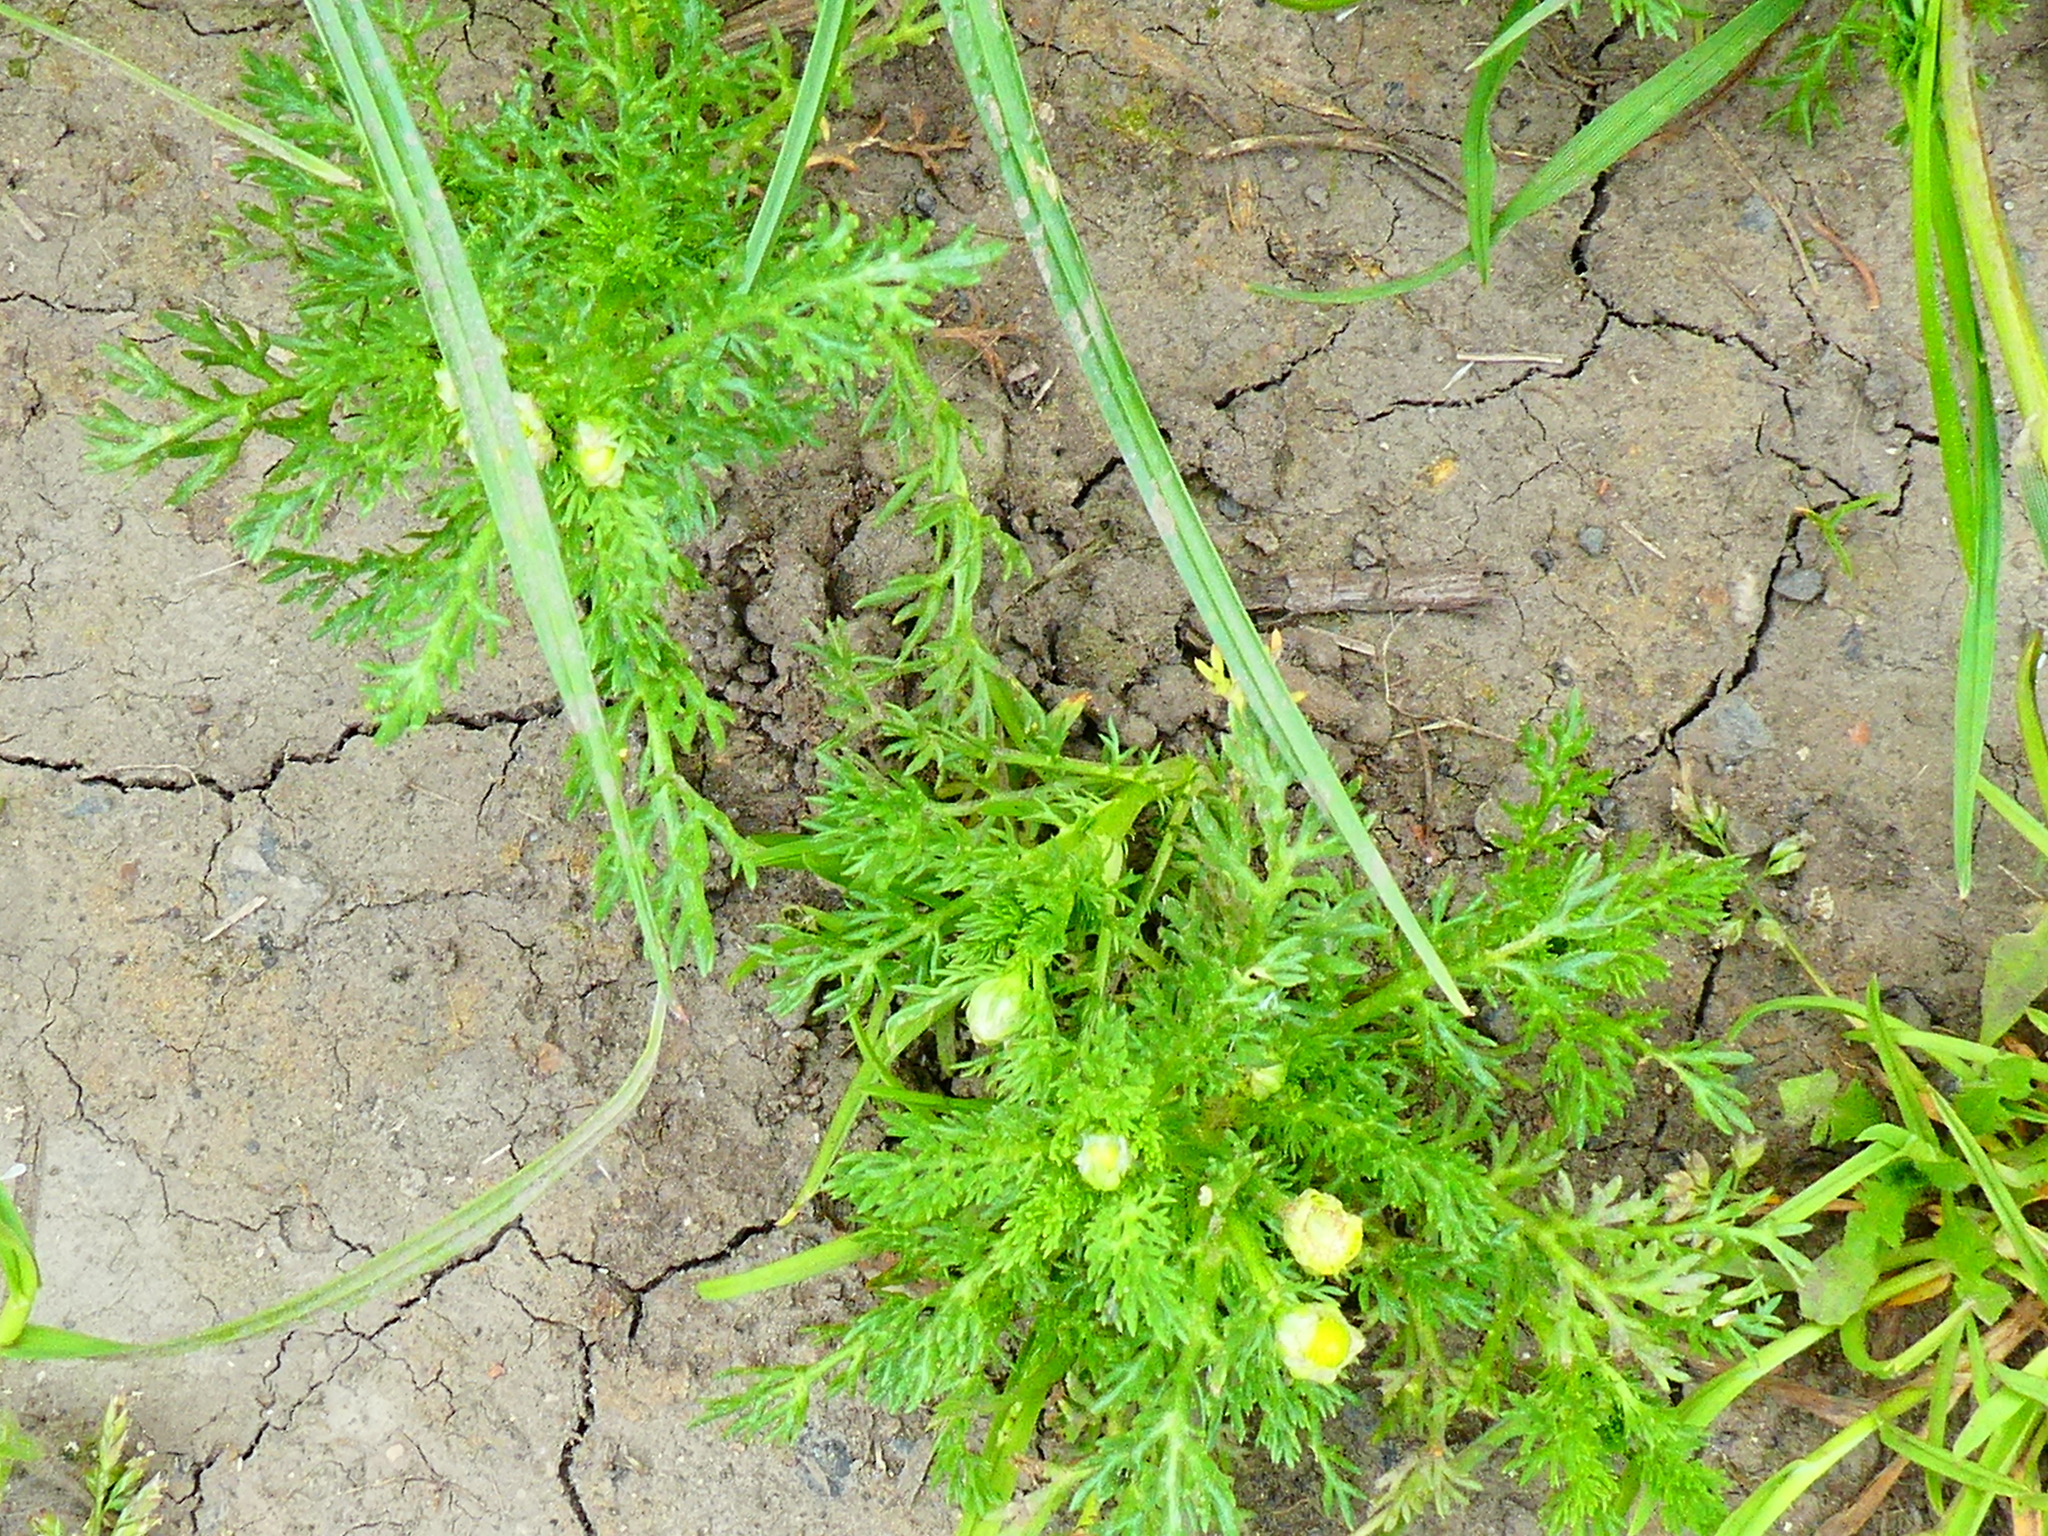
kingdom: Plantae
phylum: Tracheophyta
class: Magnoliopsida
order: Asterales
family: Asteraceae
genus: Matricaria
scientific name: Matricaria discoidea
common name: Disc mayweed
